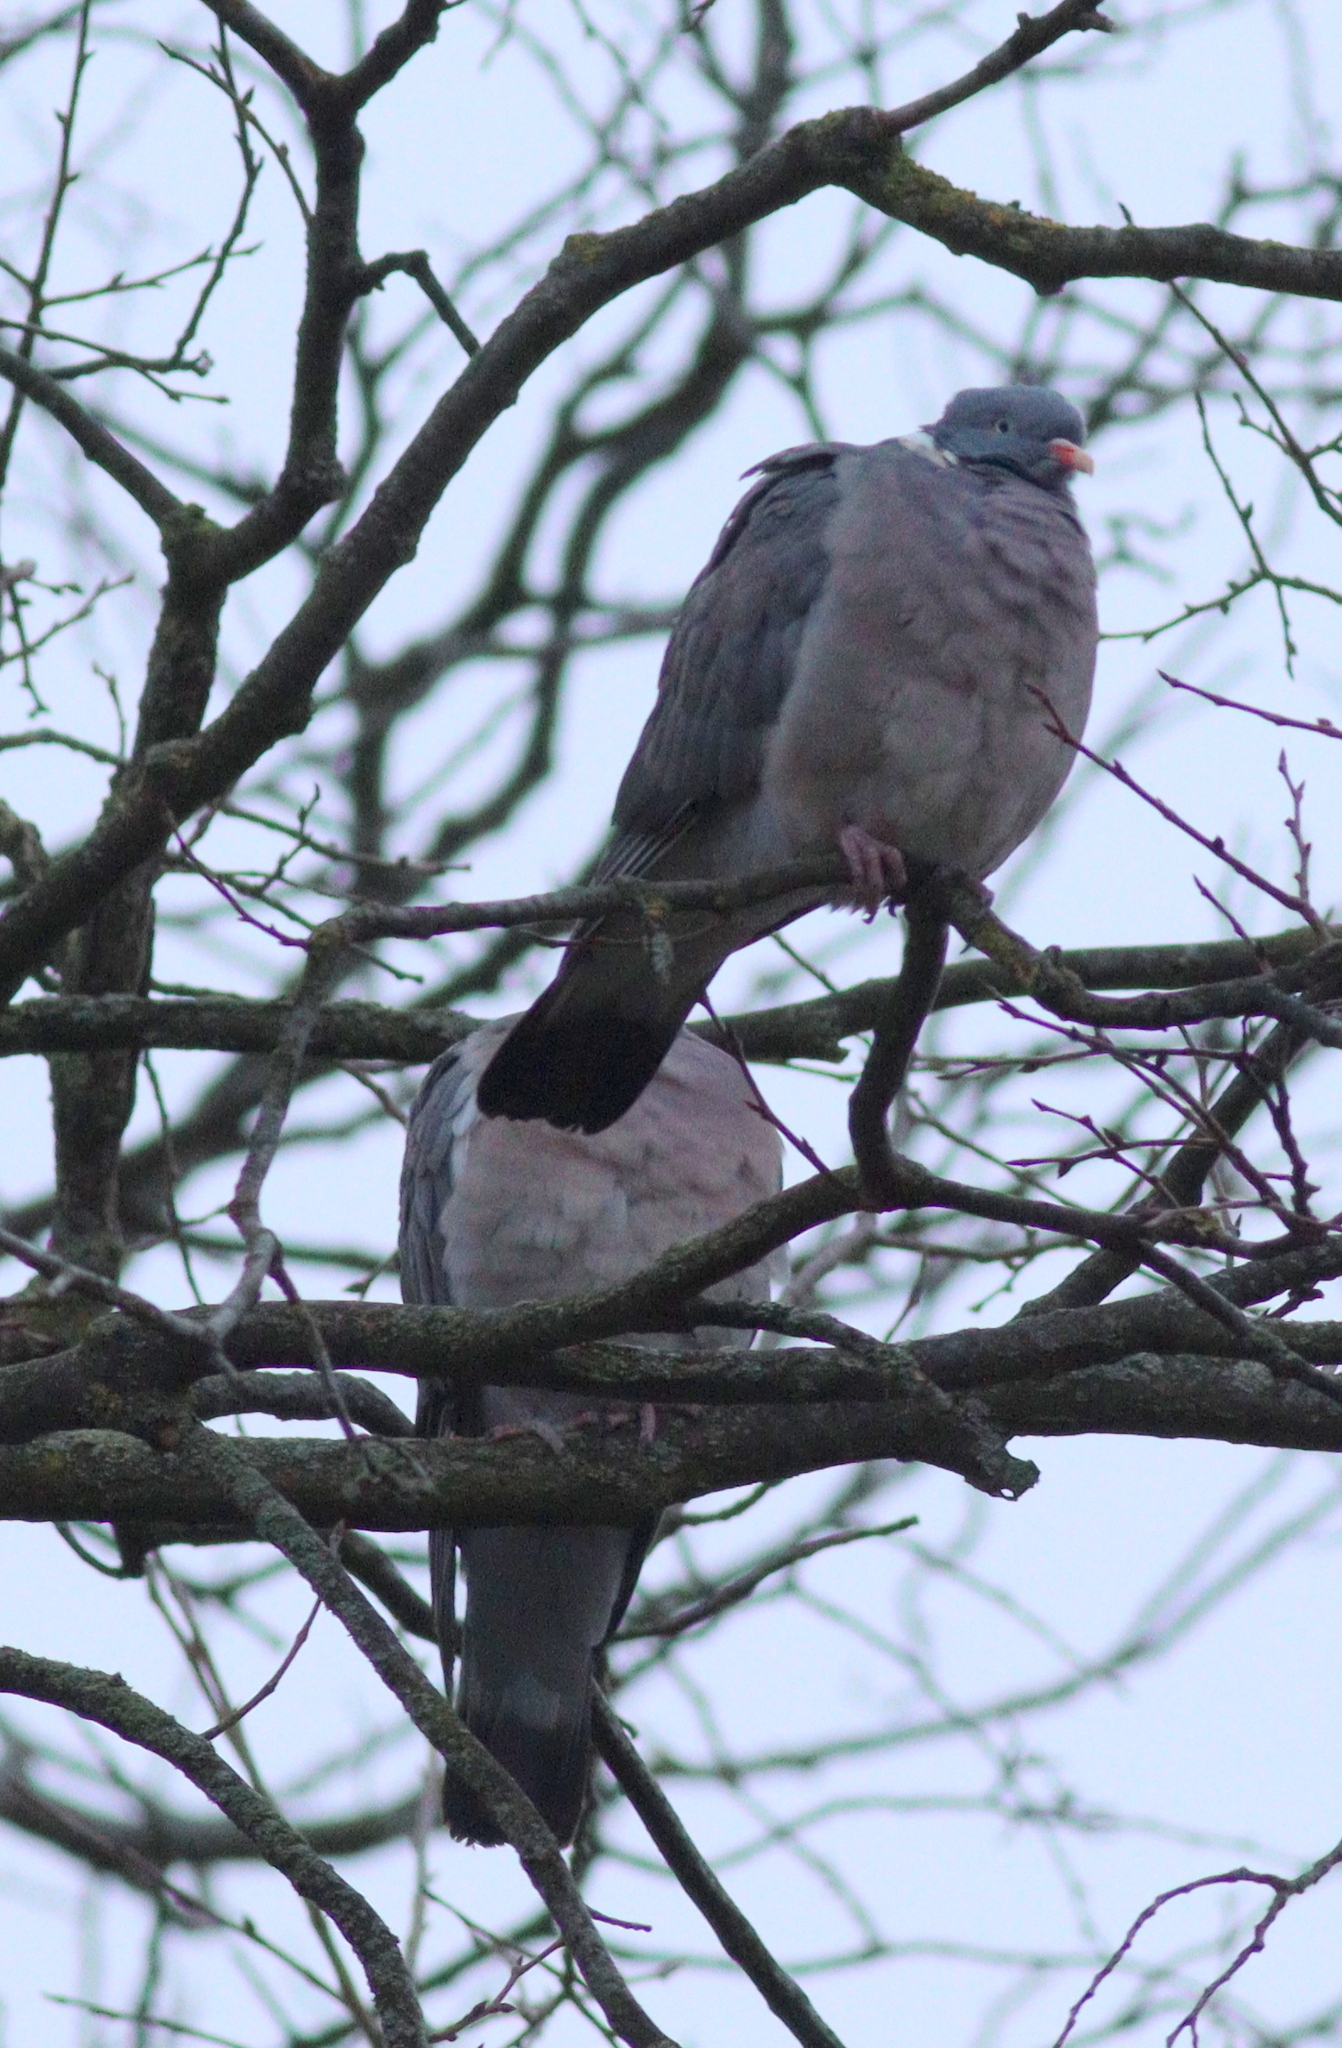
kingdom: Animalia
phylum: Chordata
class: Aves
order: Columbiformes
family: Columbidae
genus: Columba
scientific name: Columba palumbus
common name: Common wood pigeon
